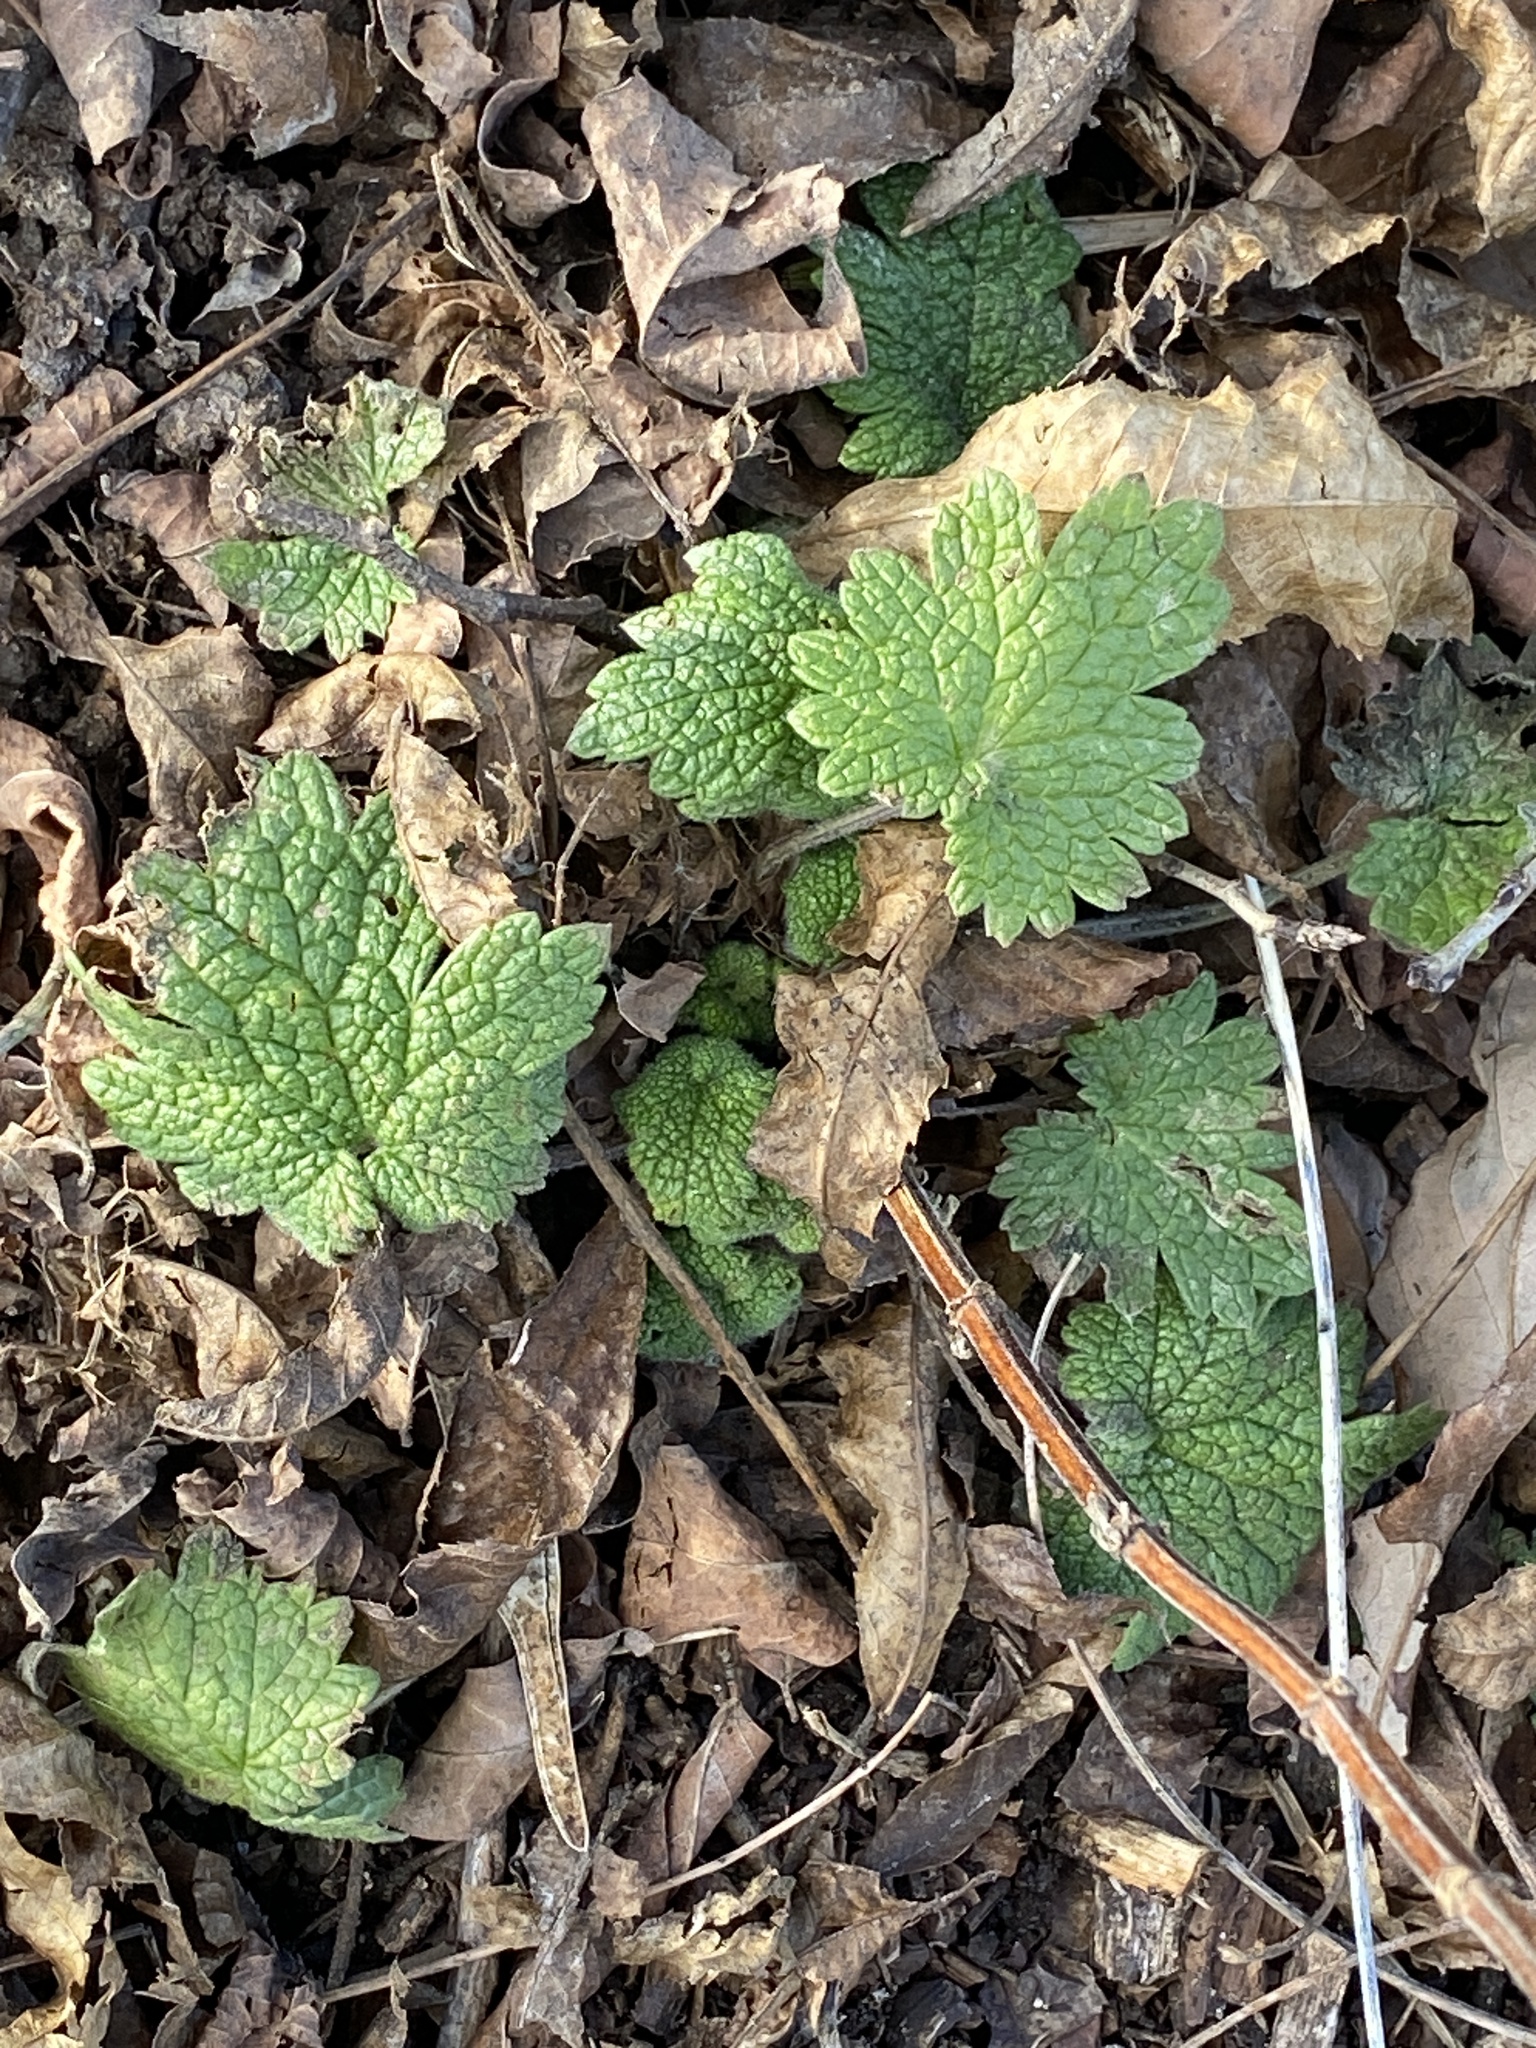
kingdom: Plantae
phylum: Tracheophyta
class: Magnoliopsida
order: Lamiales
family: Lamiaceae
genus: Leonurus
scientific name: Leonurus cardiaca
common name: Motherwort
